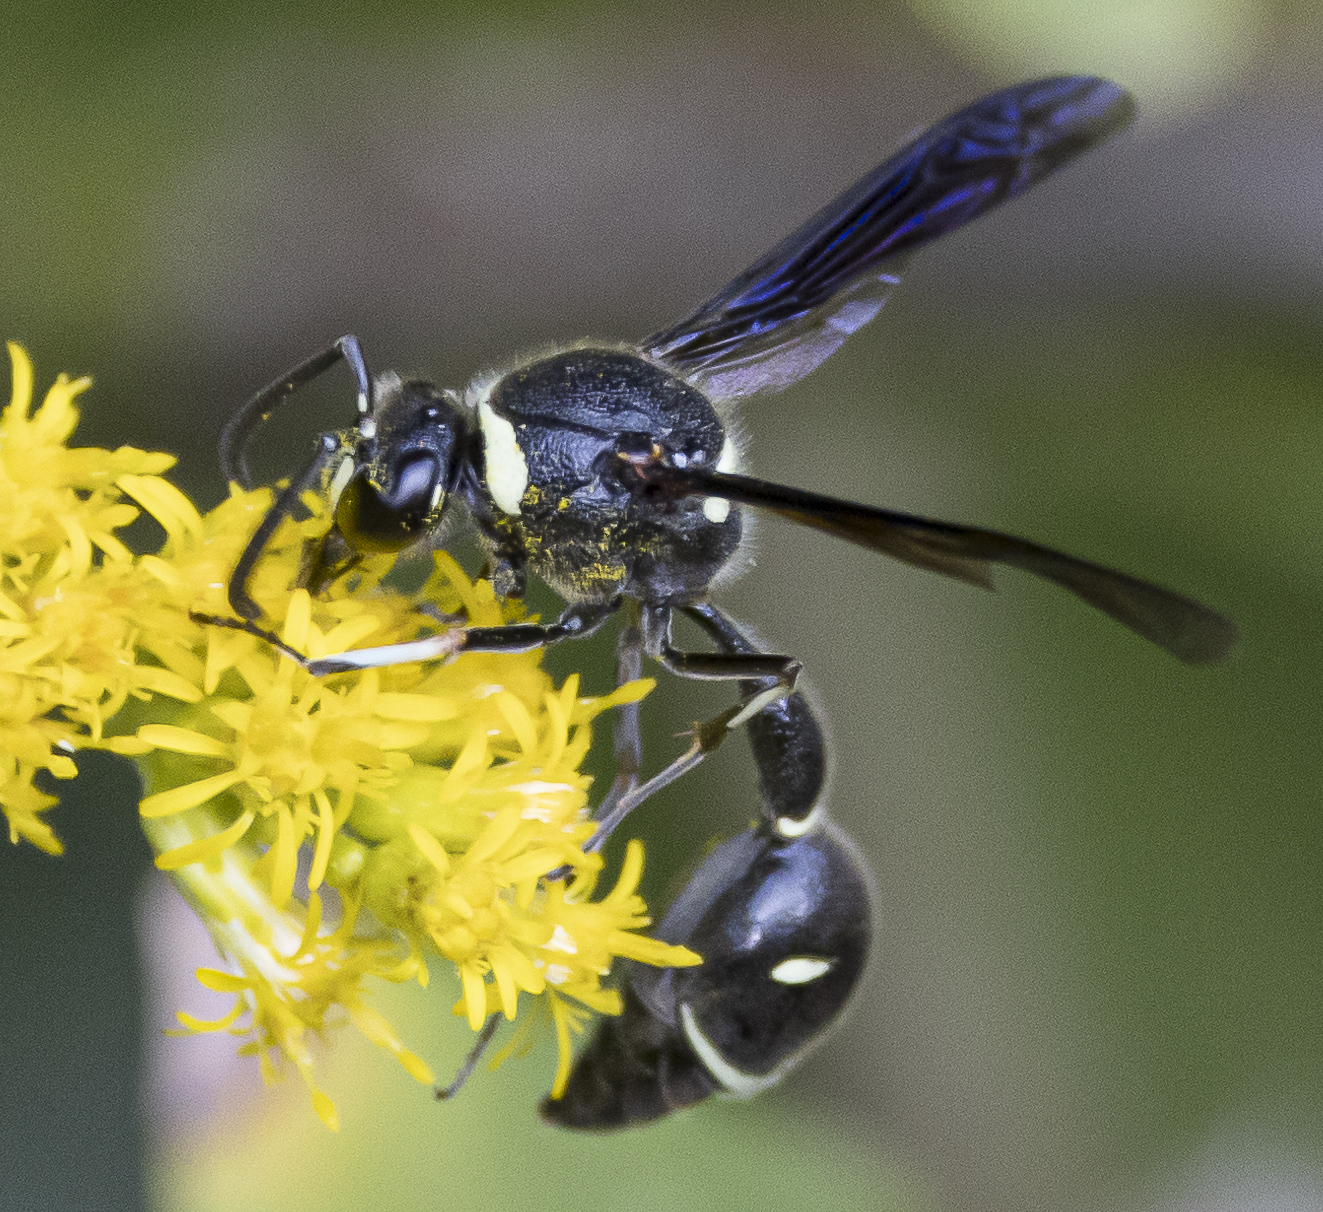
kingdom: Animalia
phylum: Arthropoda
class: Insecta
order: Hymenoptera
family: Vespidae
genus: Eumenes
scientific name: Eumenes fraternus
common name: Fraternal potter wasp
